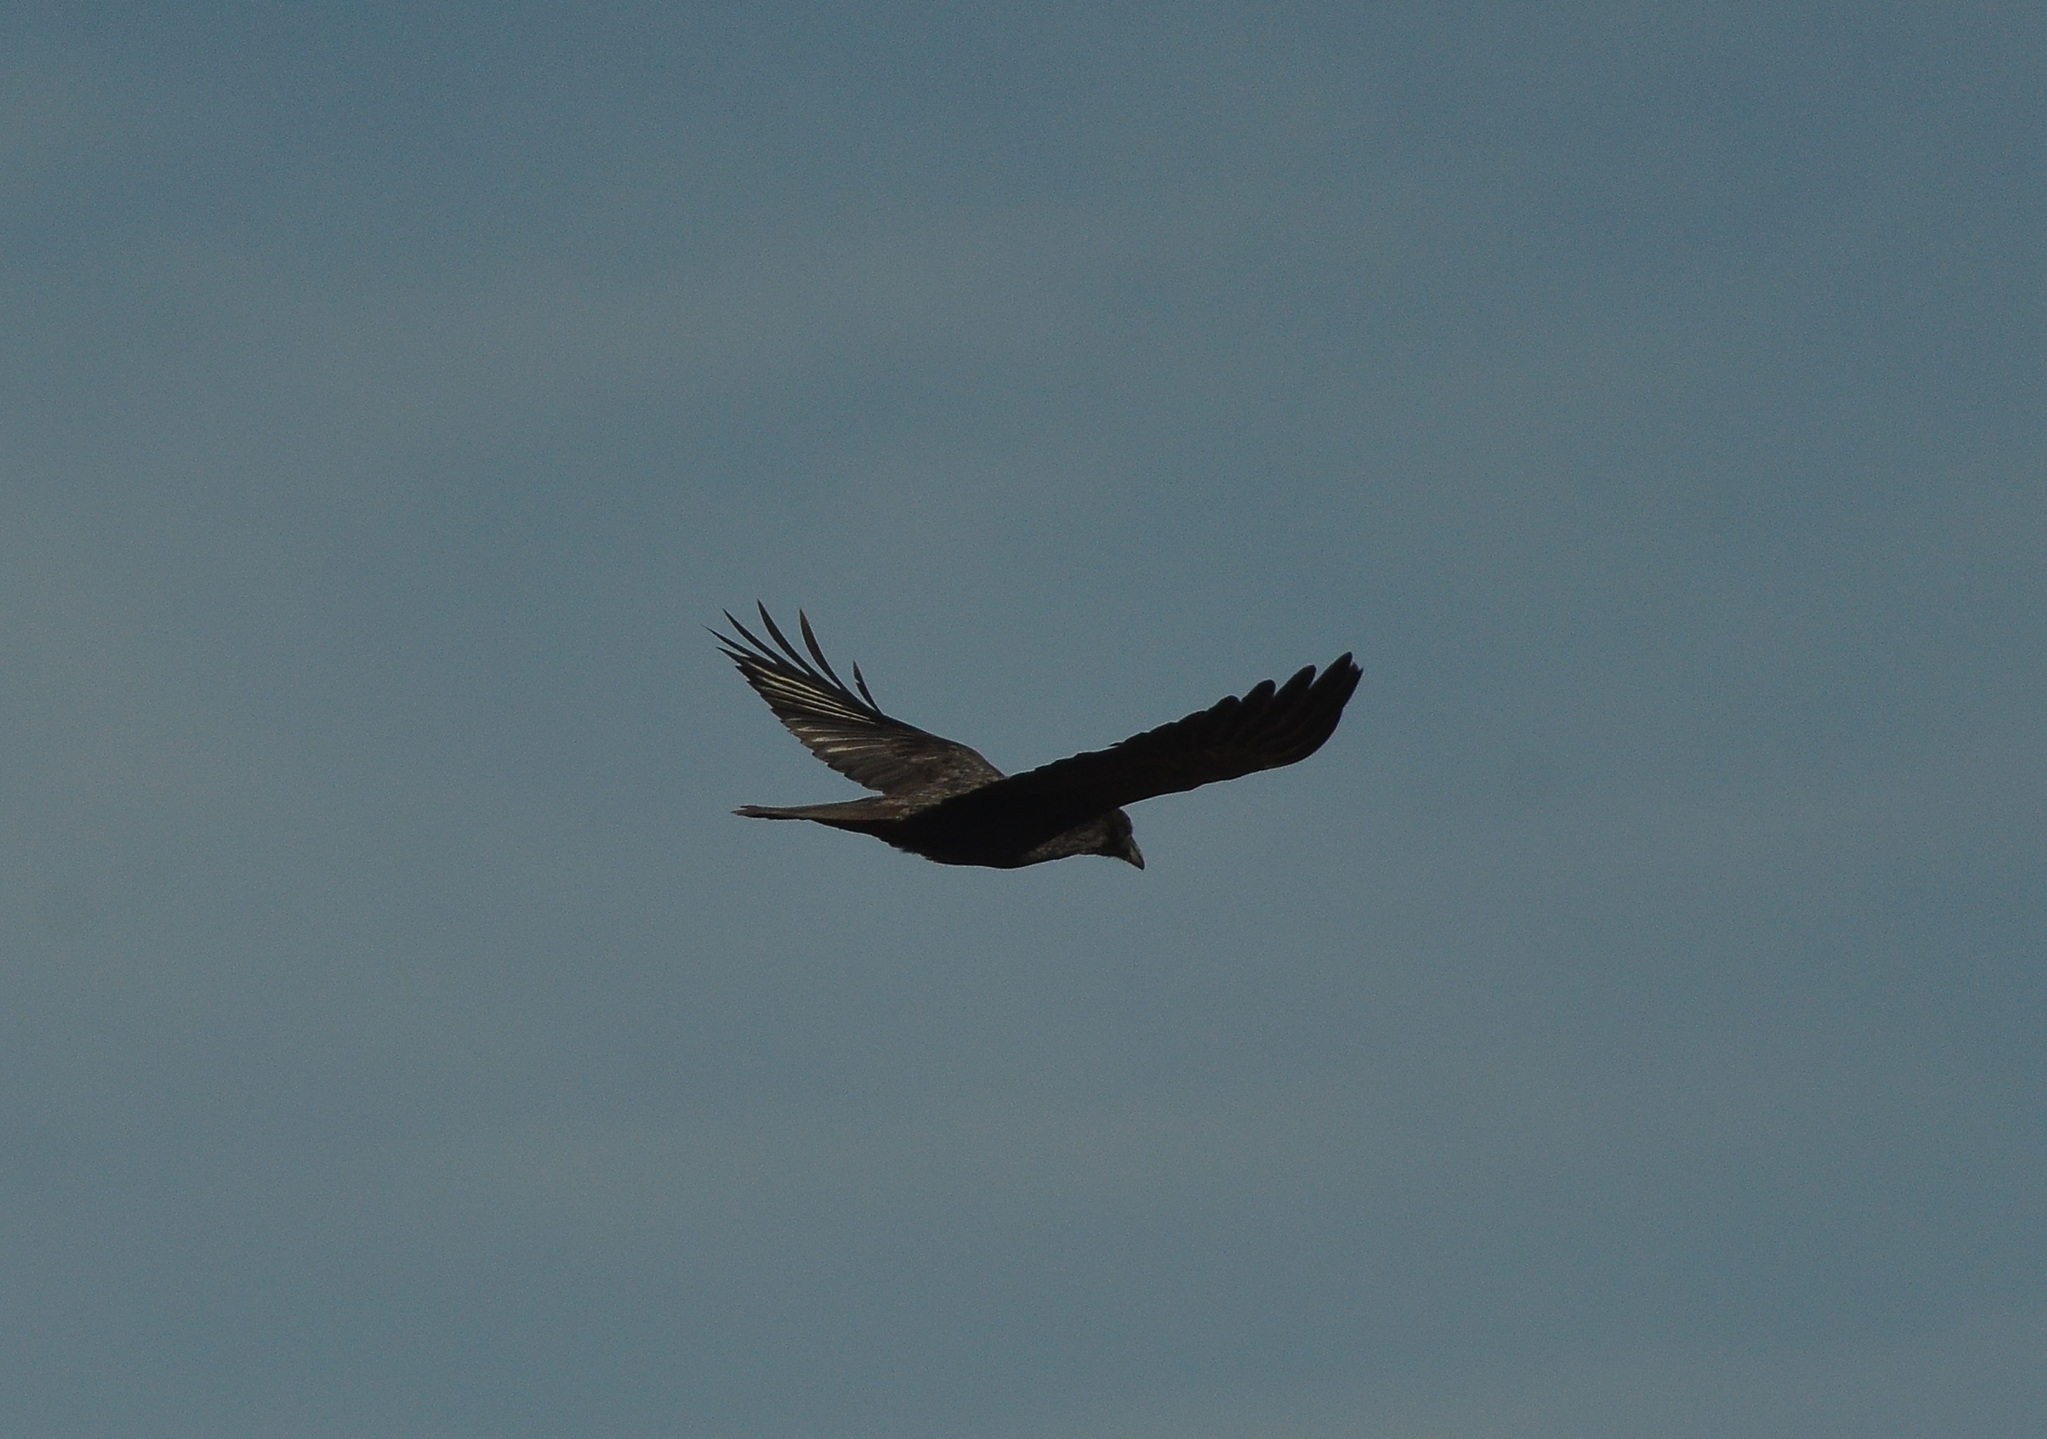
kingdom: Animalia
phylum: Chordata
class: Aves
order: Passeriformes
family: Corvidae
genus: Corvus
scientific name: Corvus corax
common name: Common raven
